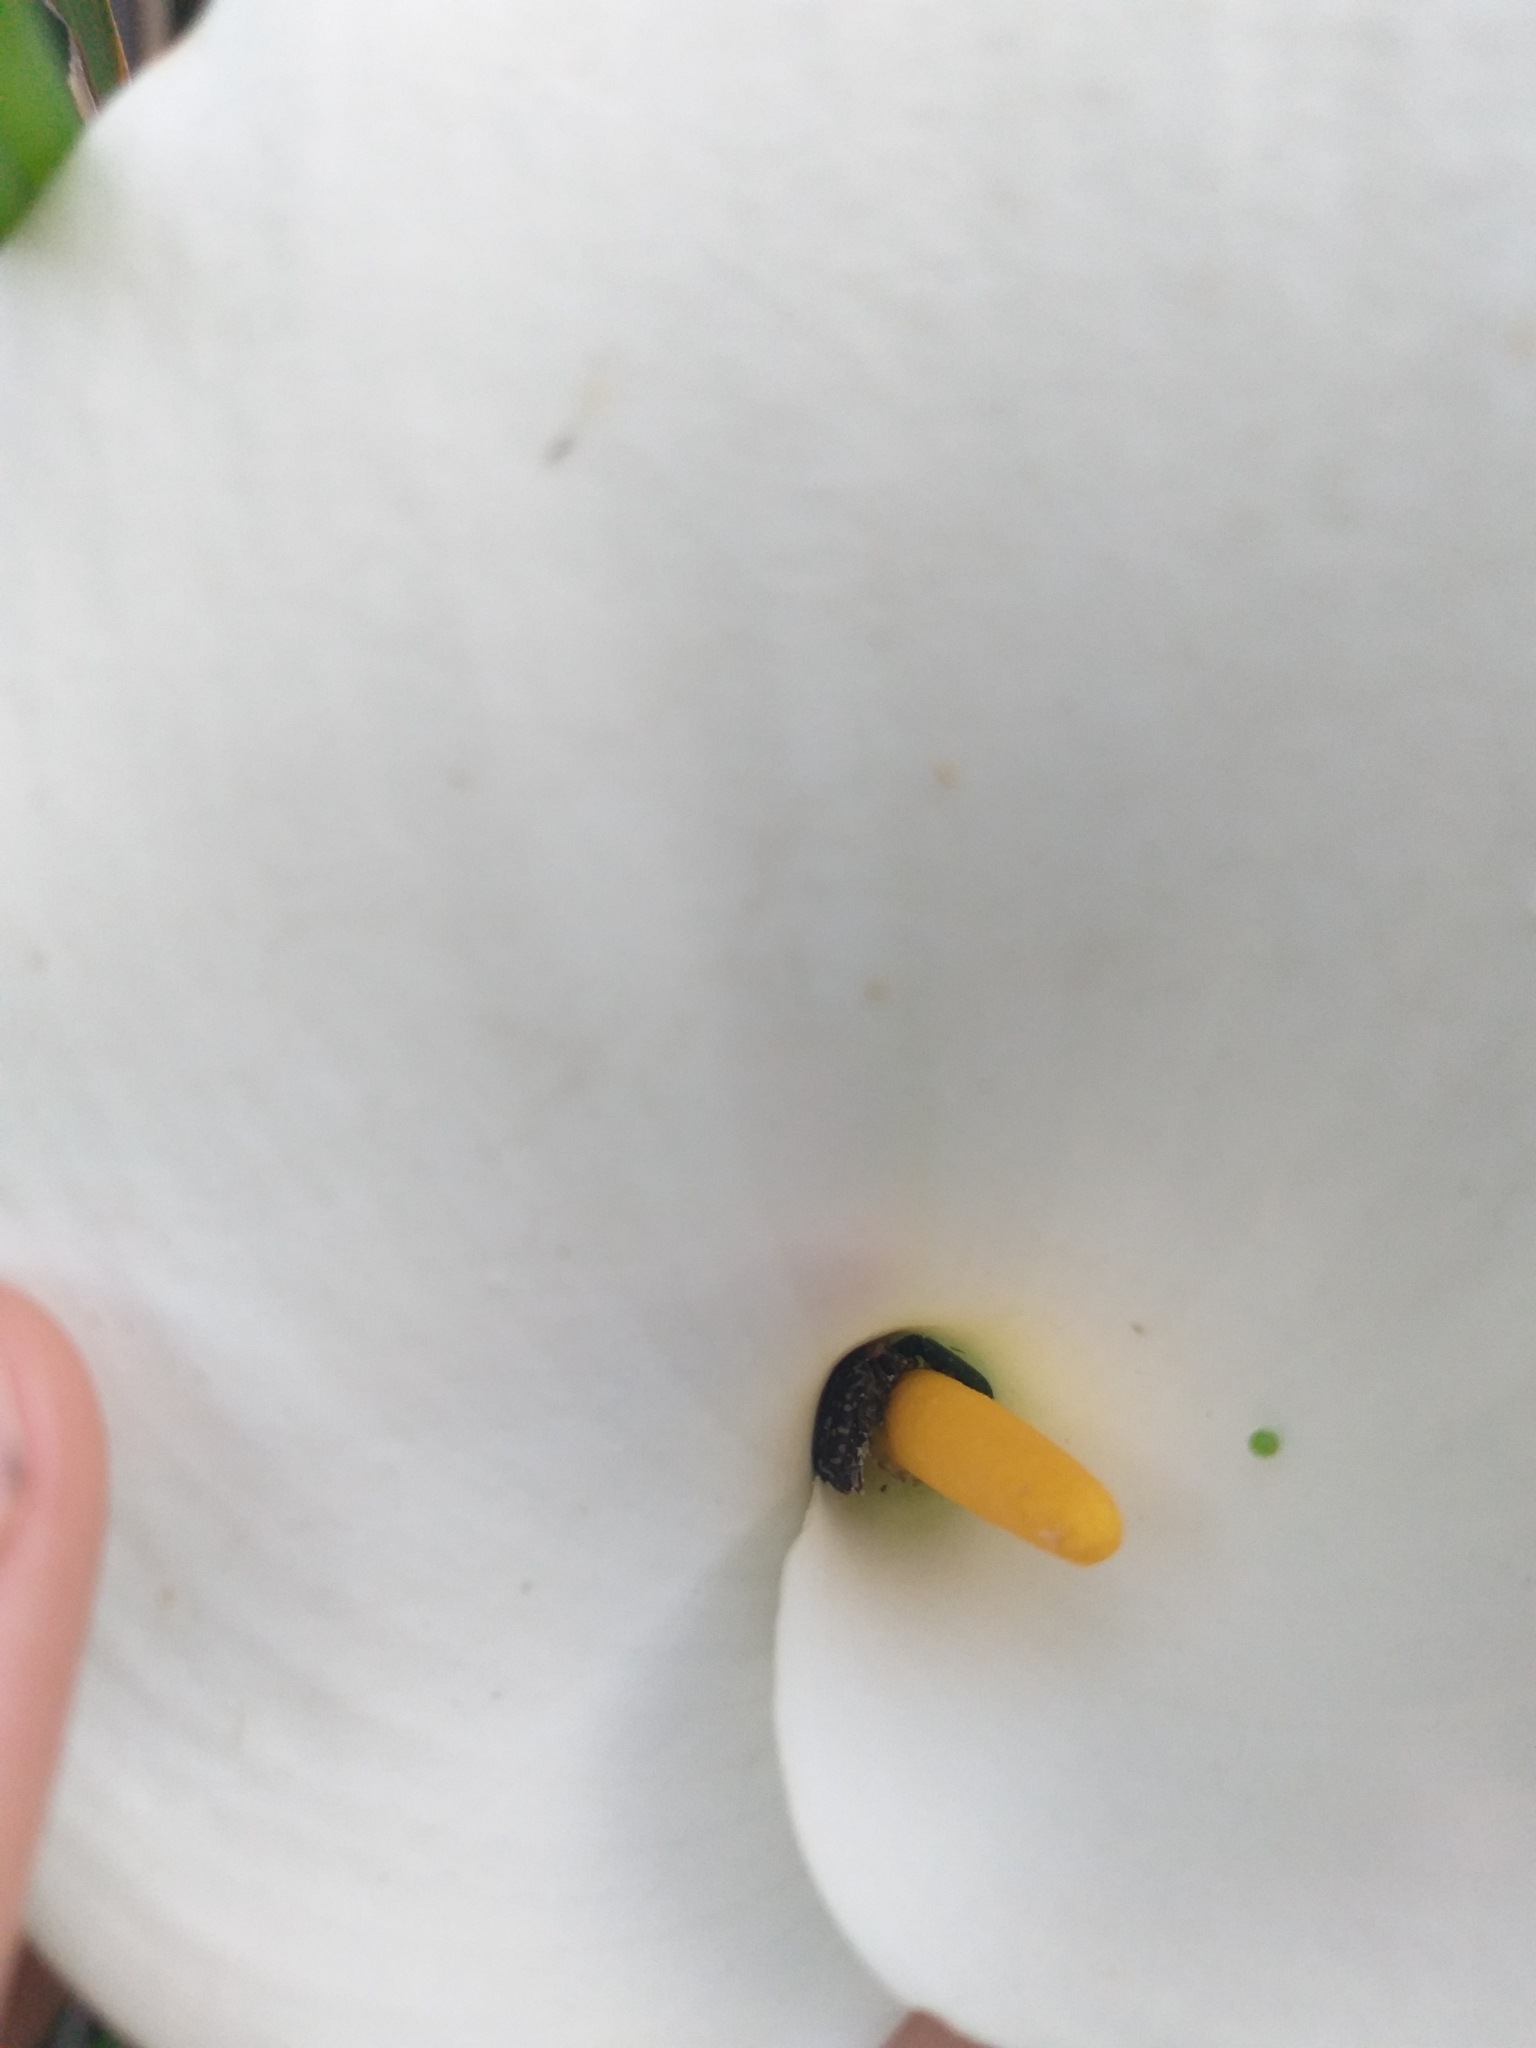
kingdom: Plantae
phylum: Tracheophyta
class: Liliopsida
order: Alismatales
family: Araceae
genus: Zantedeschia
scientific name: Zantedeschia aethiopica
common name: Altar-lily
